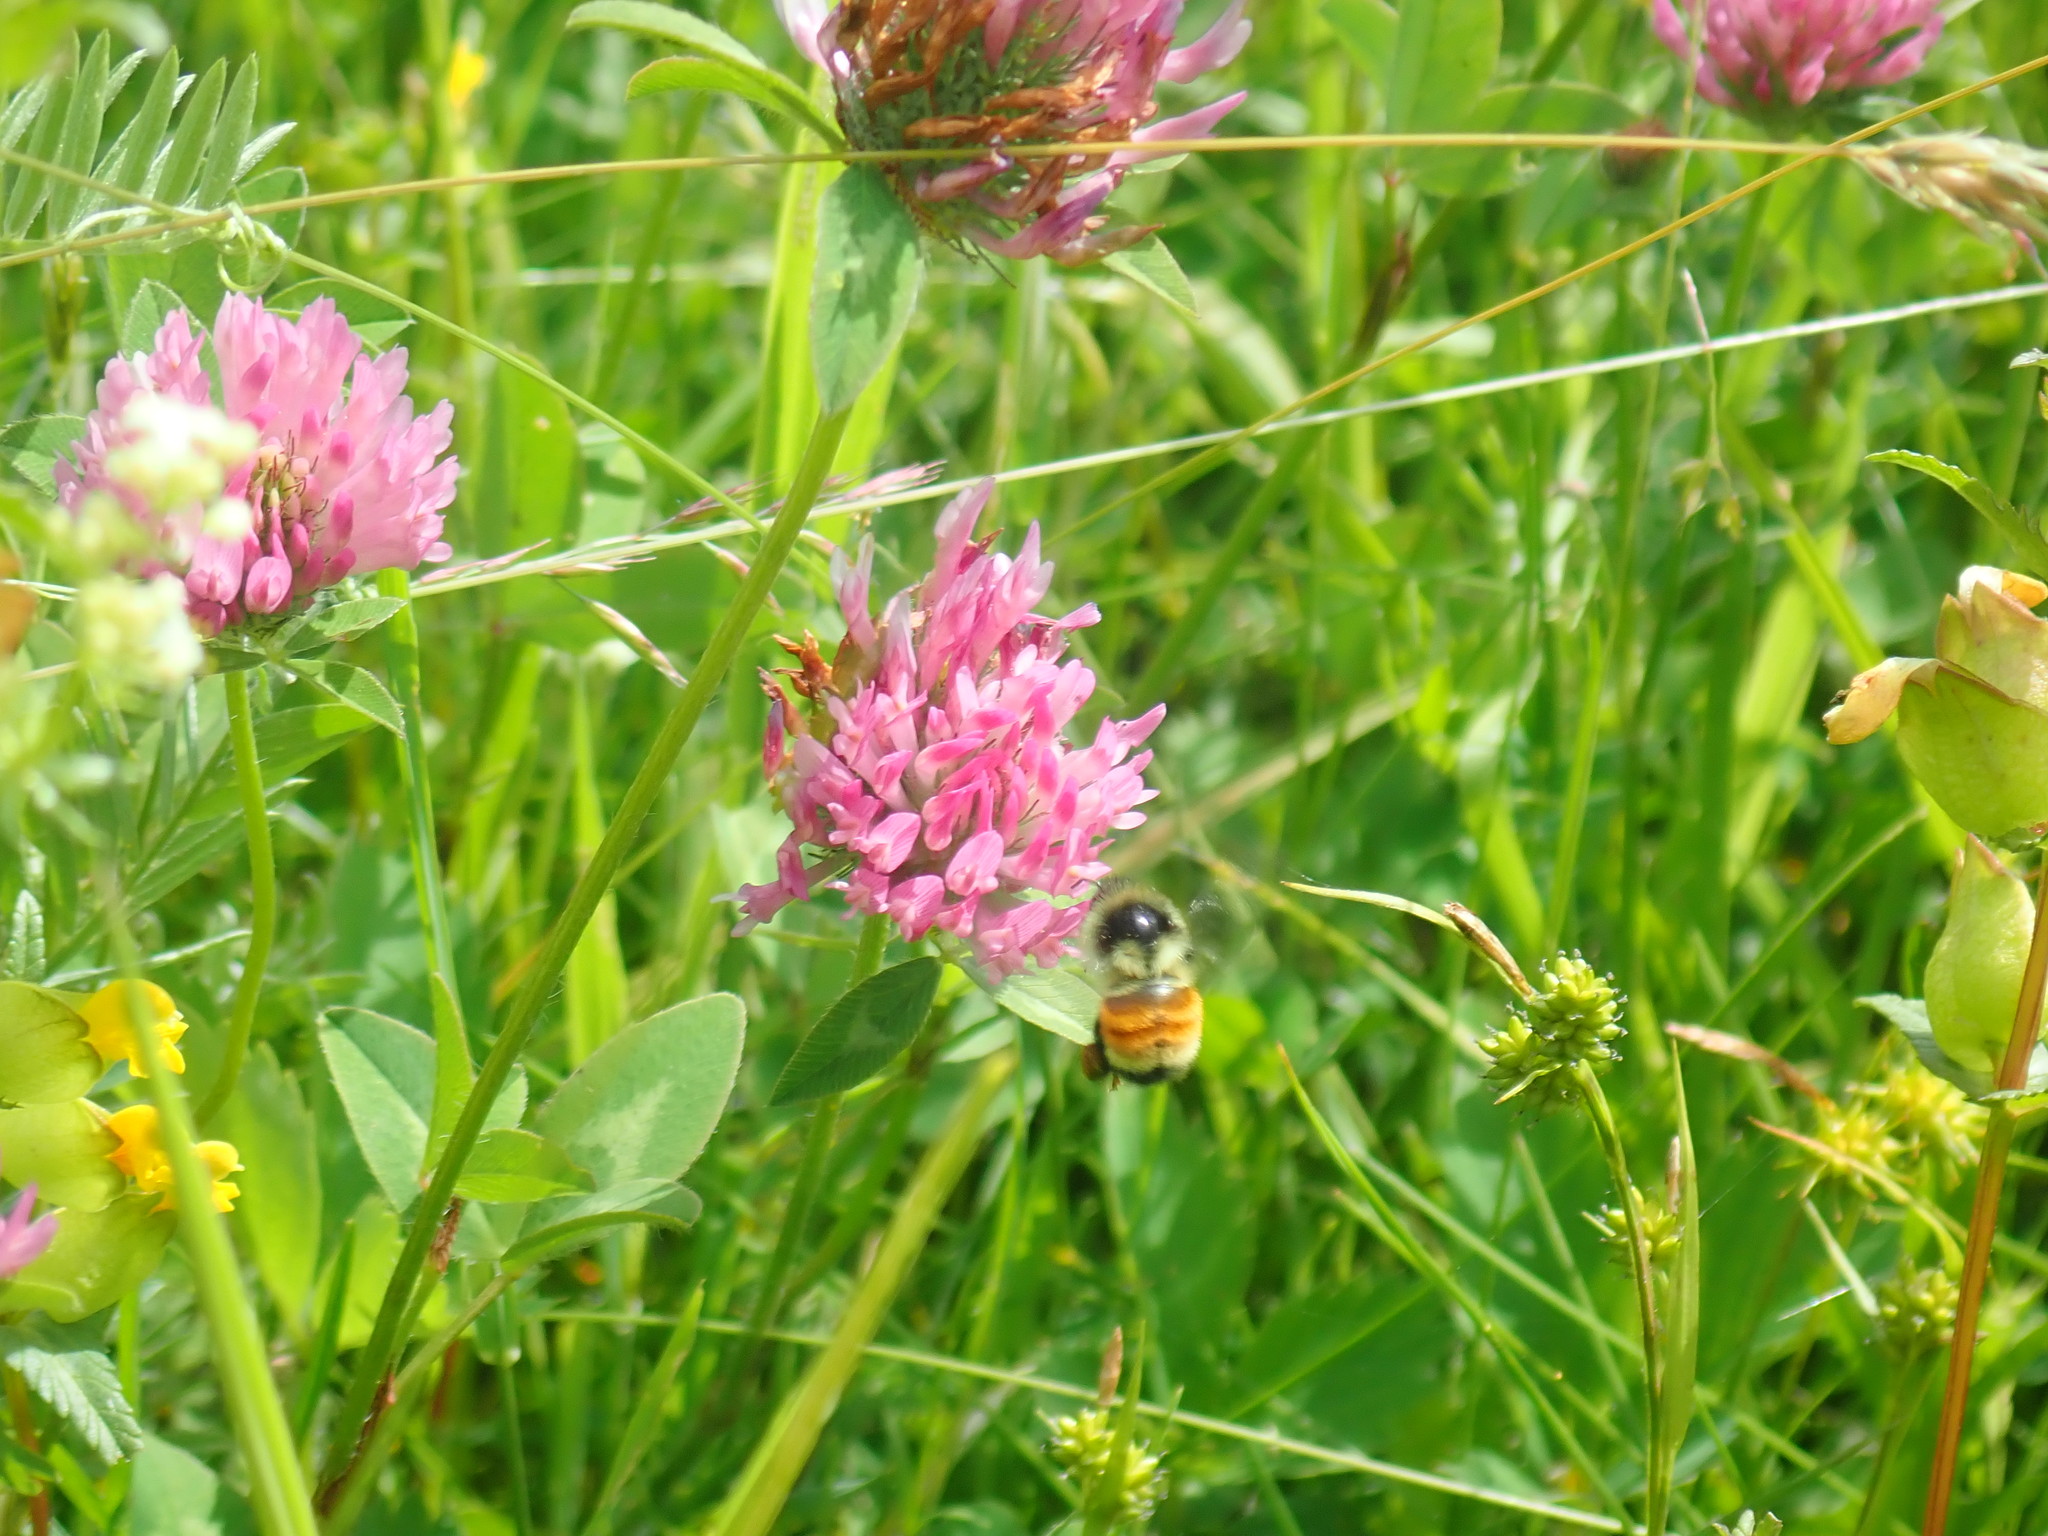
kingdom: Animalia
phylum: Arthropoda
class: Insecta
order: Hymenoptera
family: Apidae
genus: Bombus
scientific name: Bombus ternarius
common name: Tri-colored bumble bee
